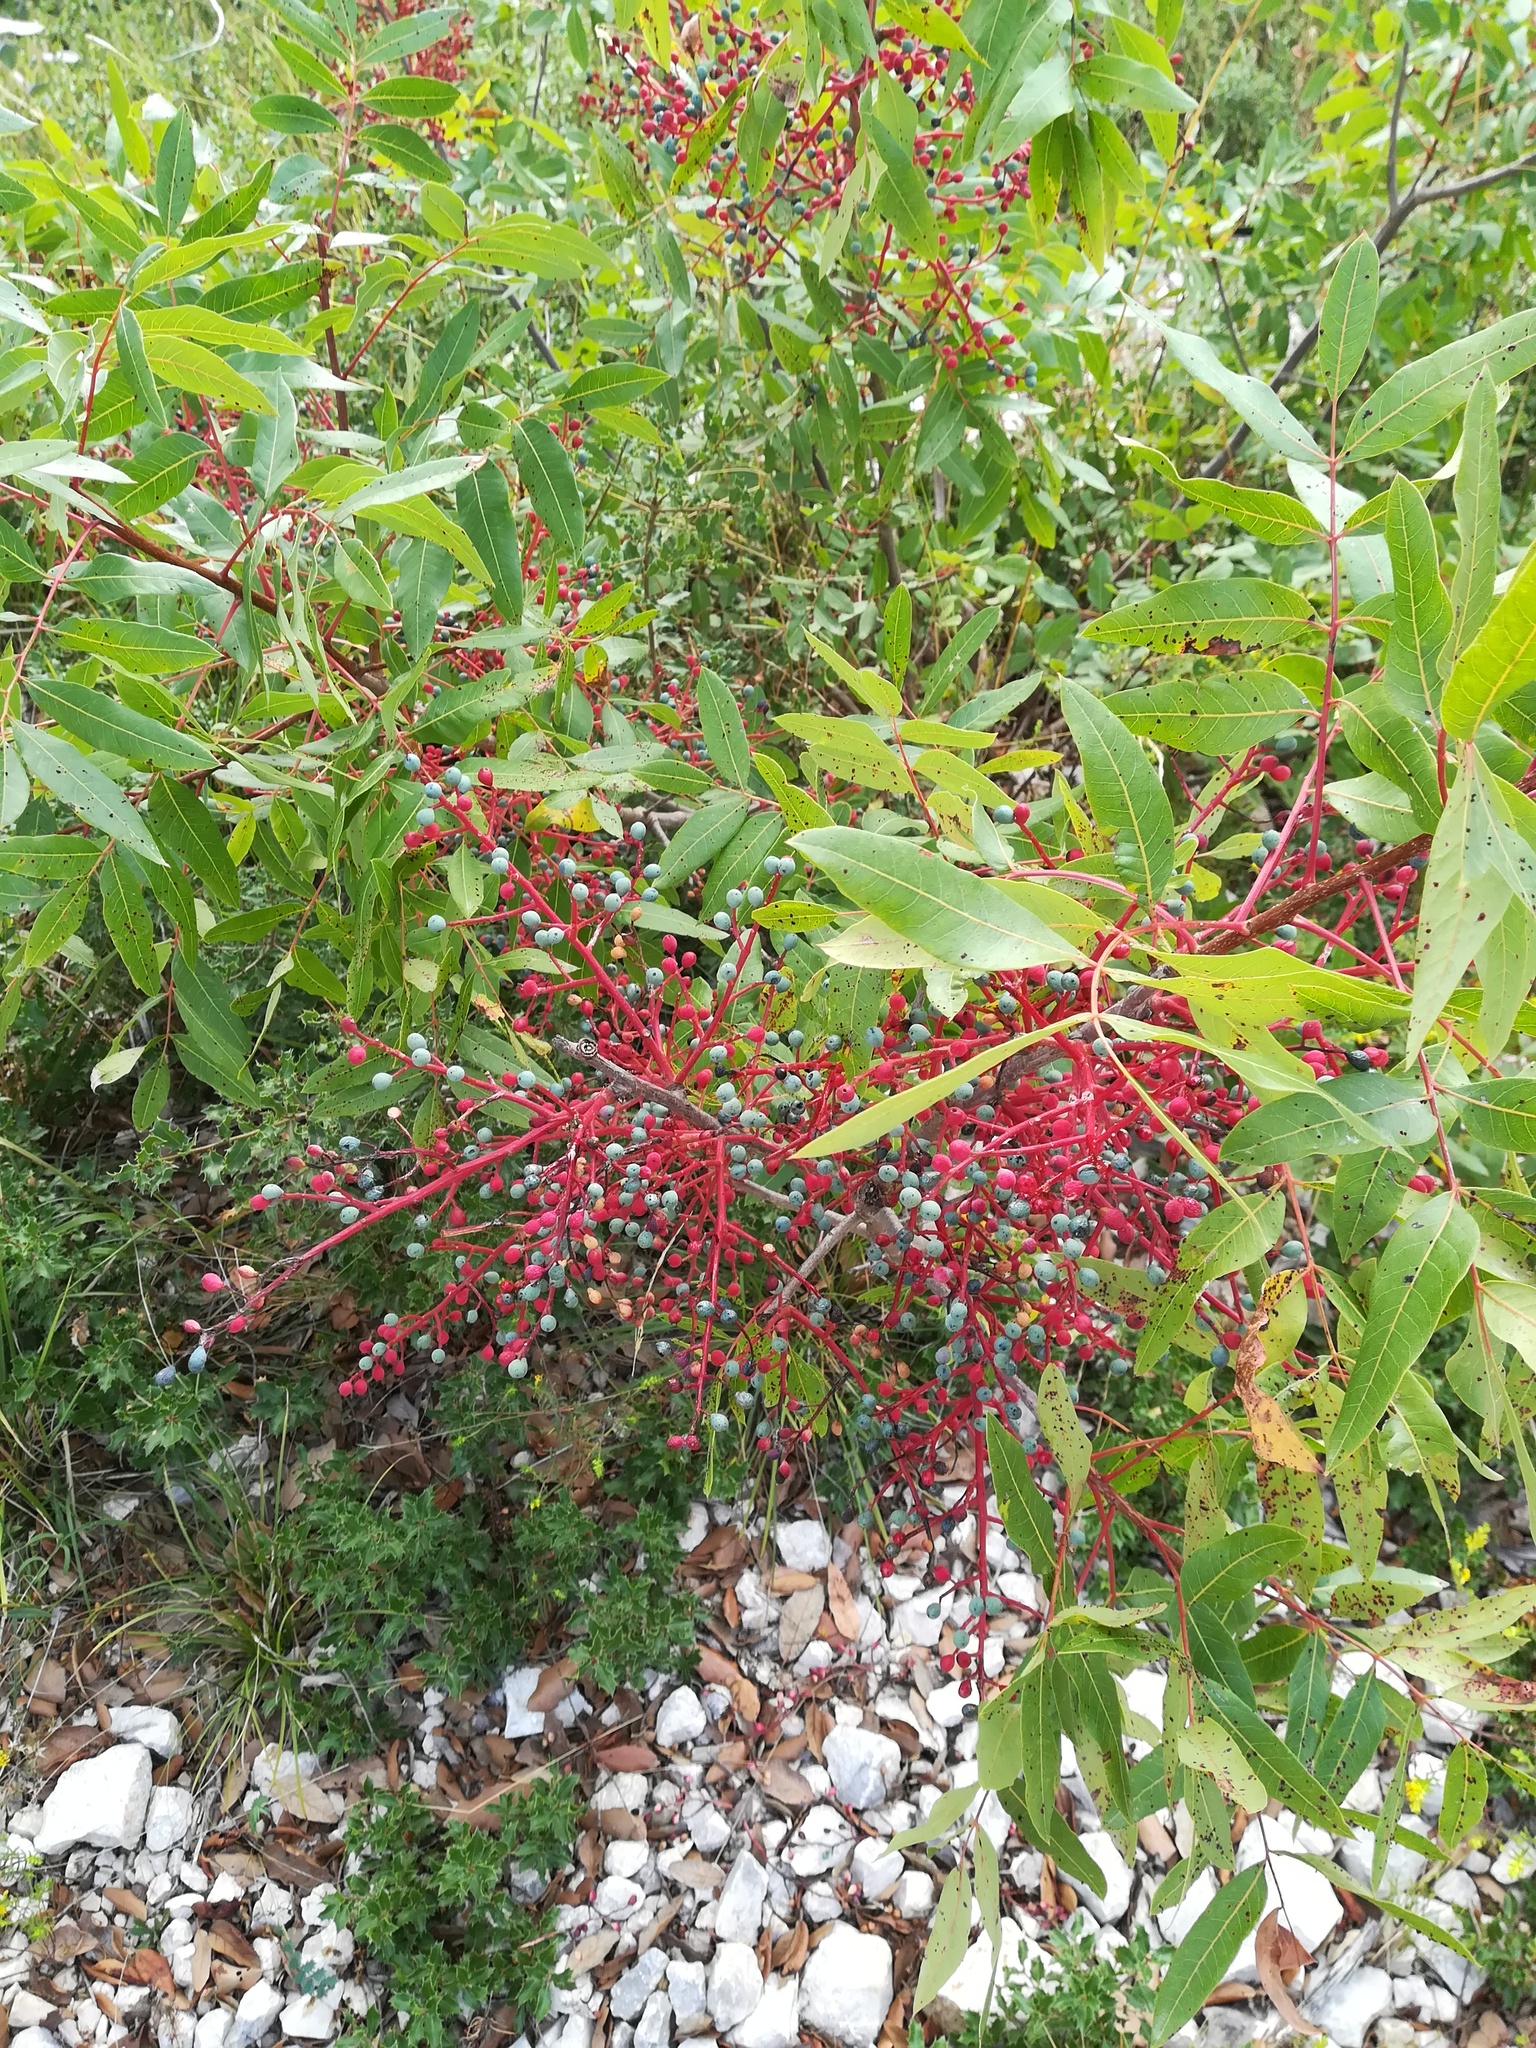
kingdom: Plantae
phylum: Tracheophyta
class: Magnoliopsida
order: Sapindales
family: Anacardiaceae
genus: Pistacia
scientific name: Pistacia lentiscus
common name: Lentisk
